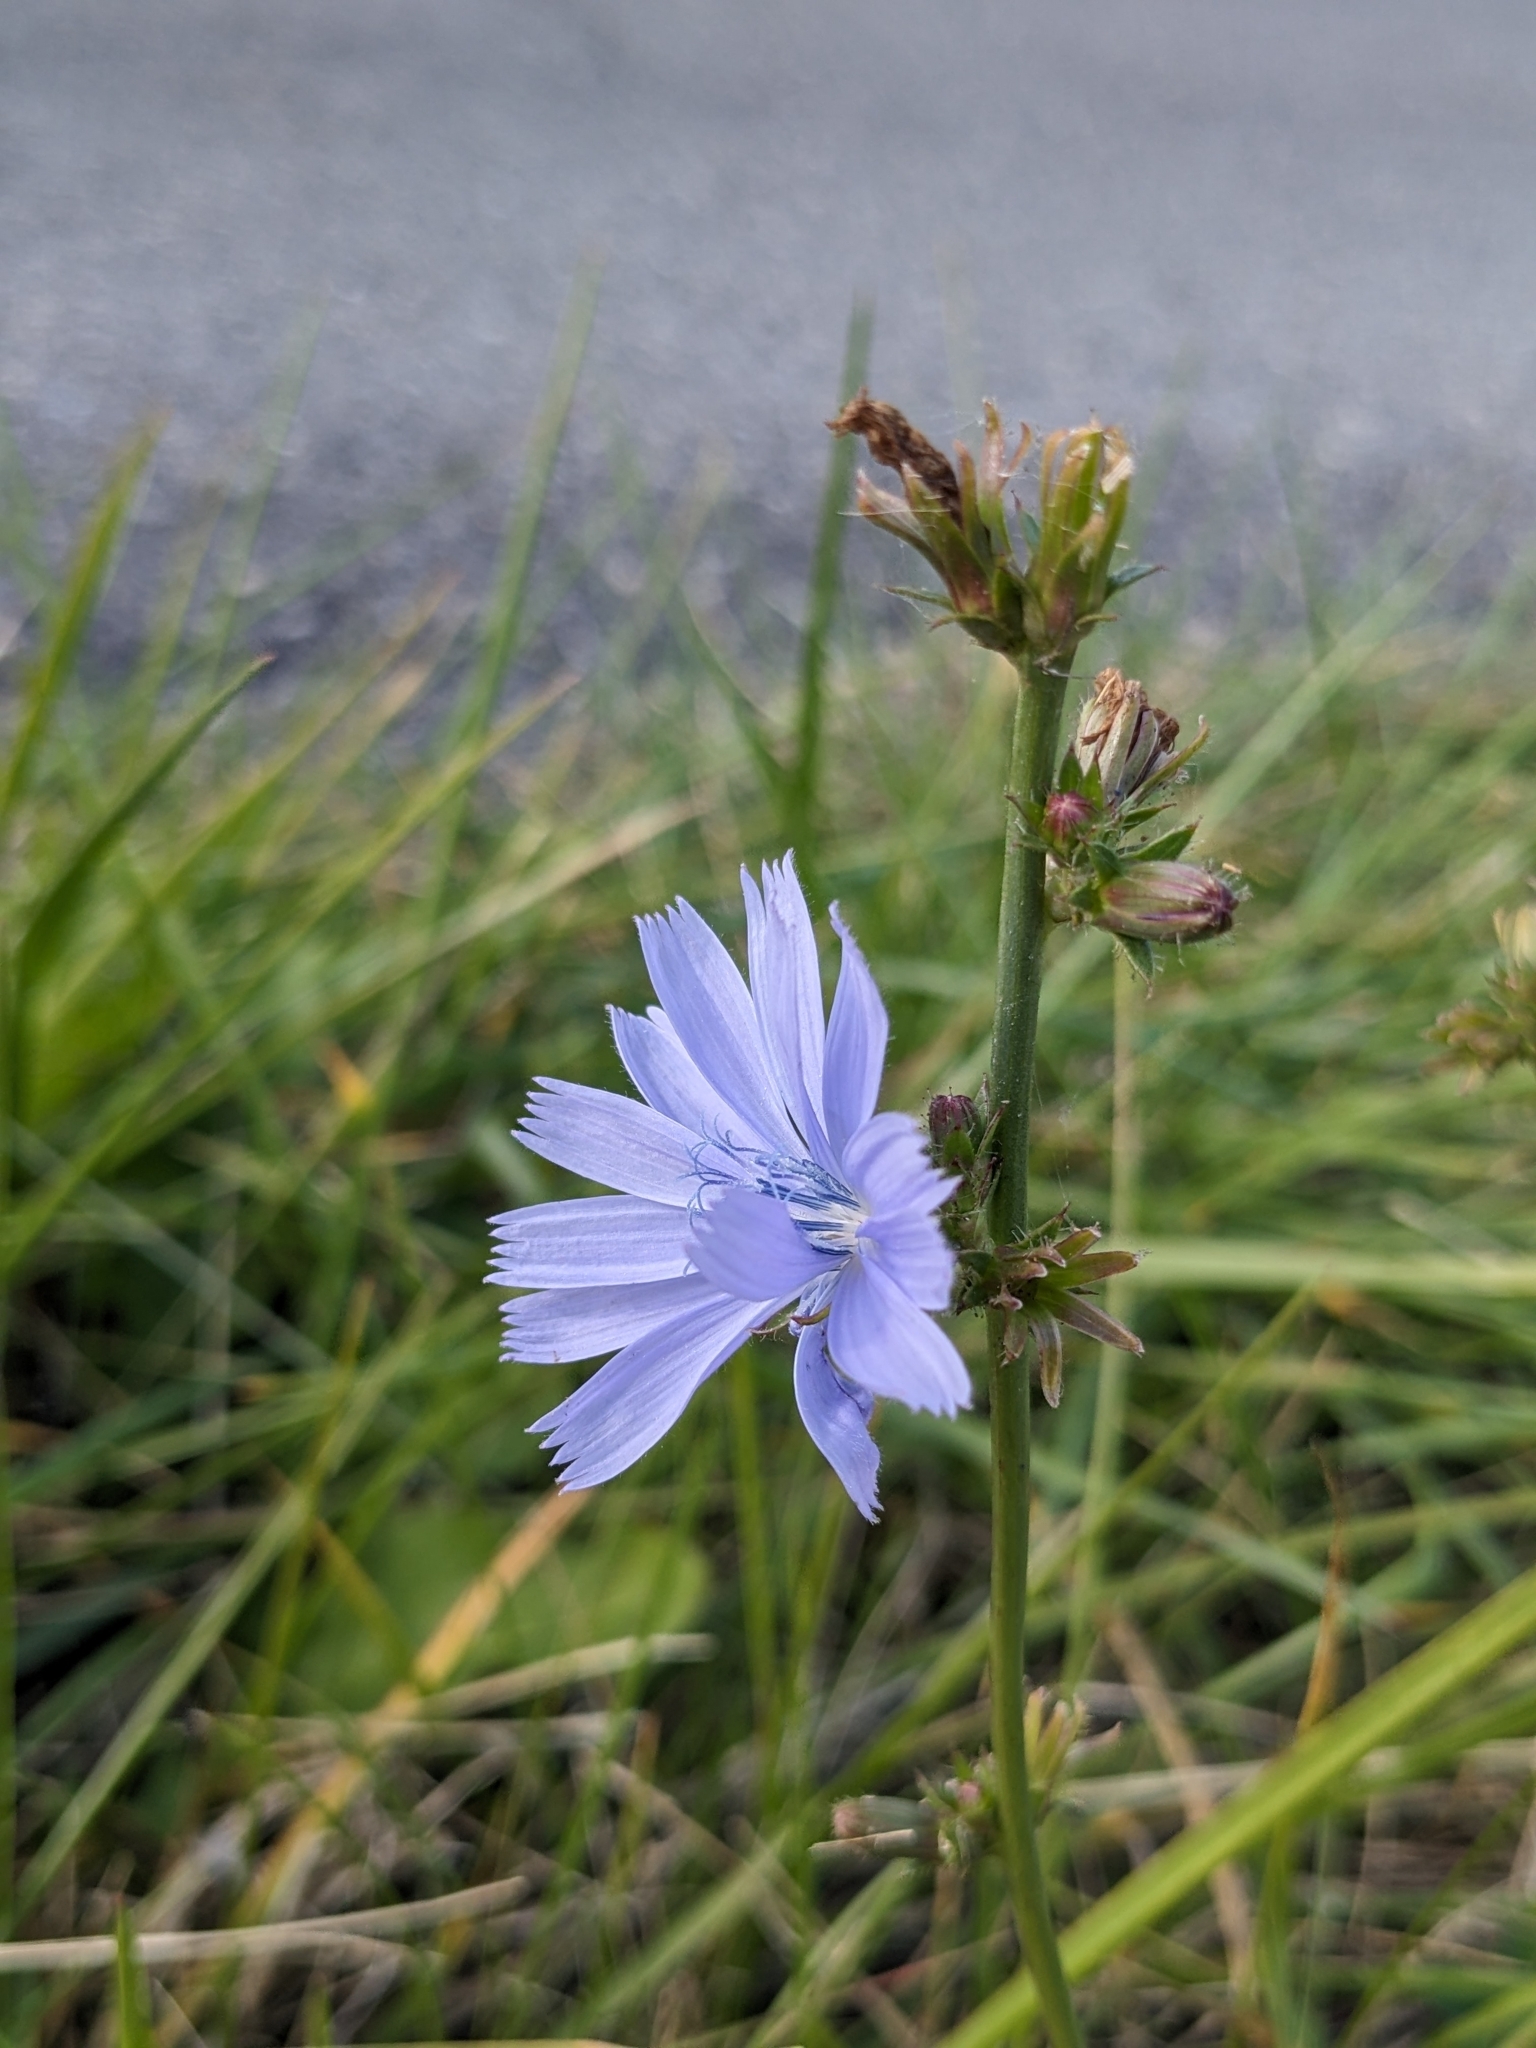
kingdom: Plantae
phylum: Tracheophyta
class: Magnoliopsida
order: Asterales
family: Asteraceae
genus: Cichorium
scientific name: Cichorium intybus
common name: Chicory
